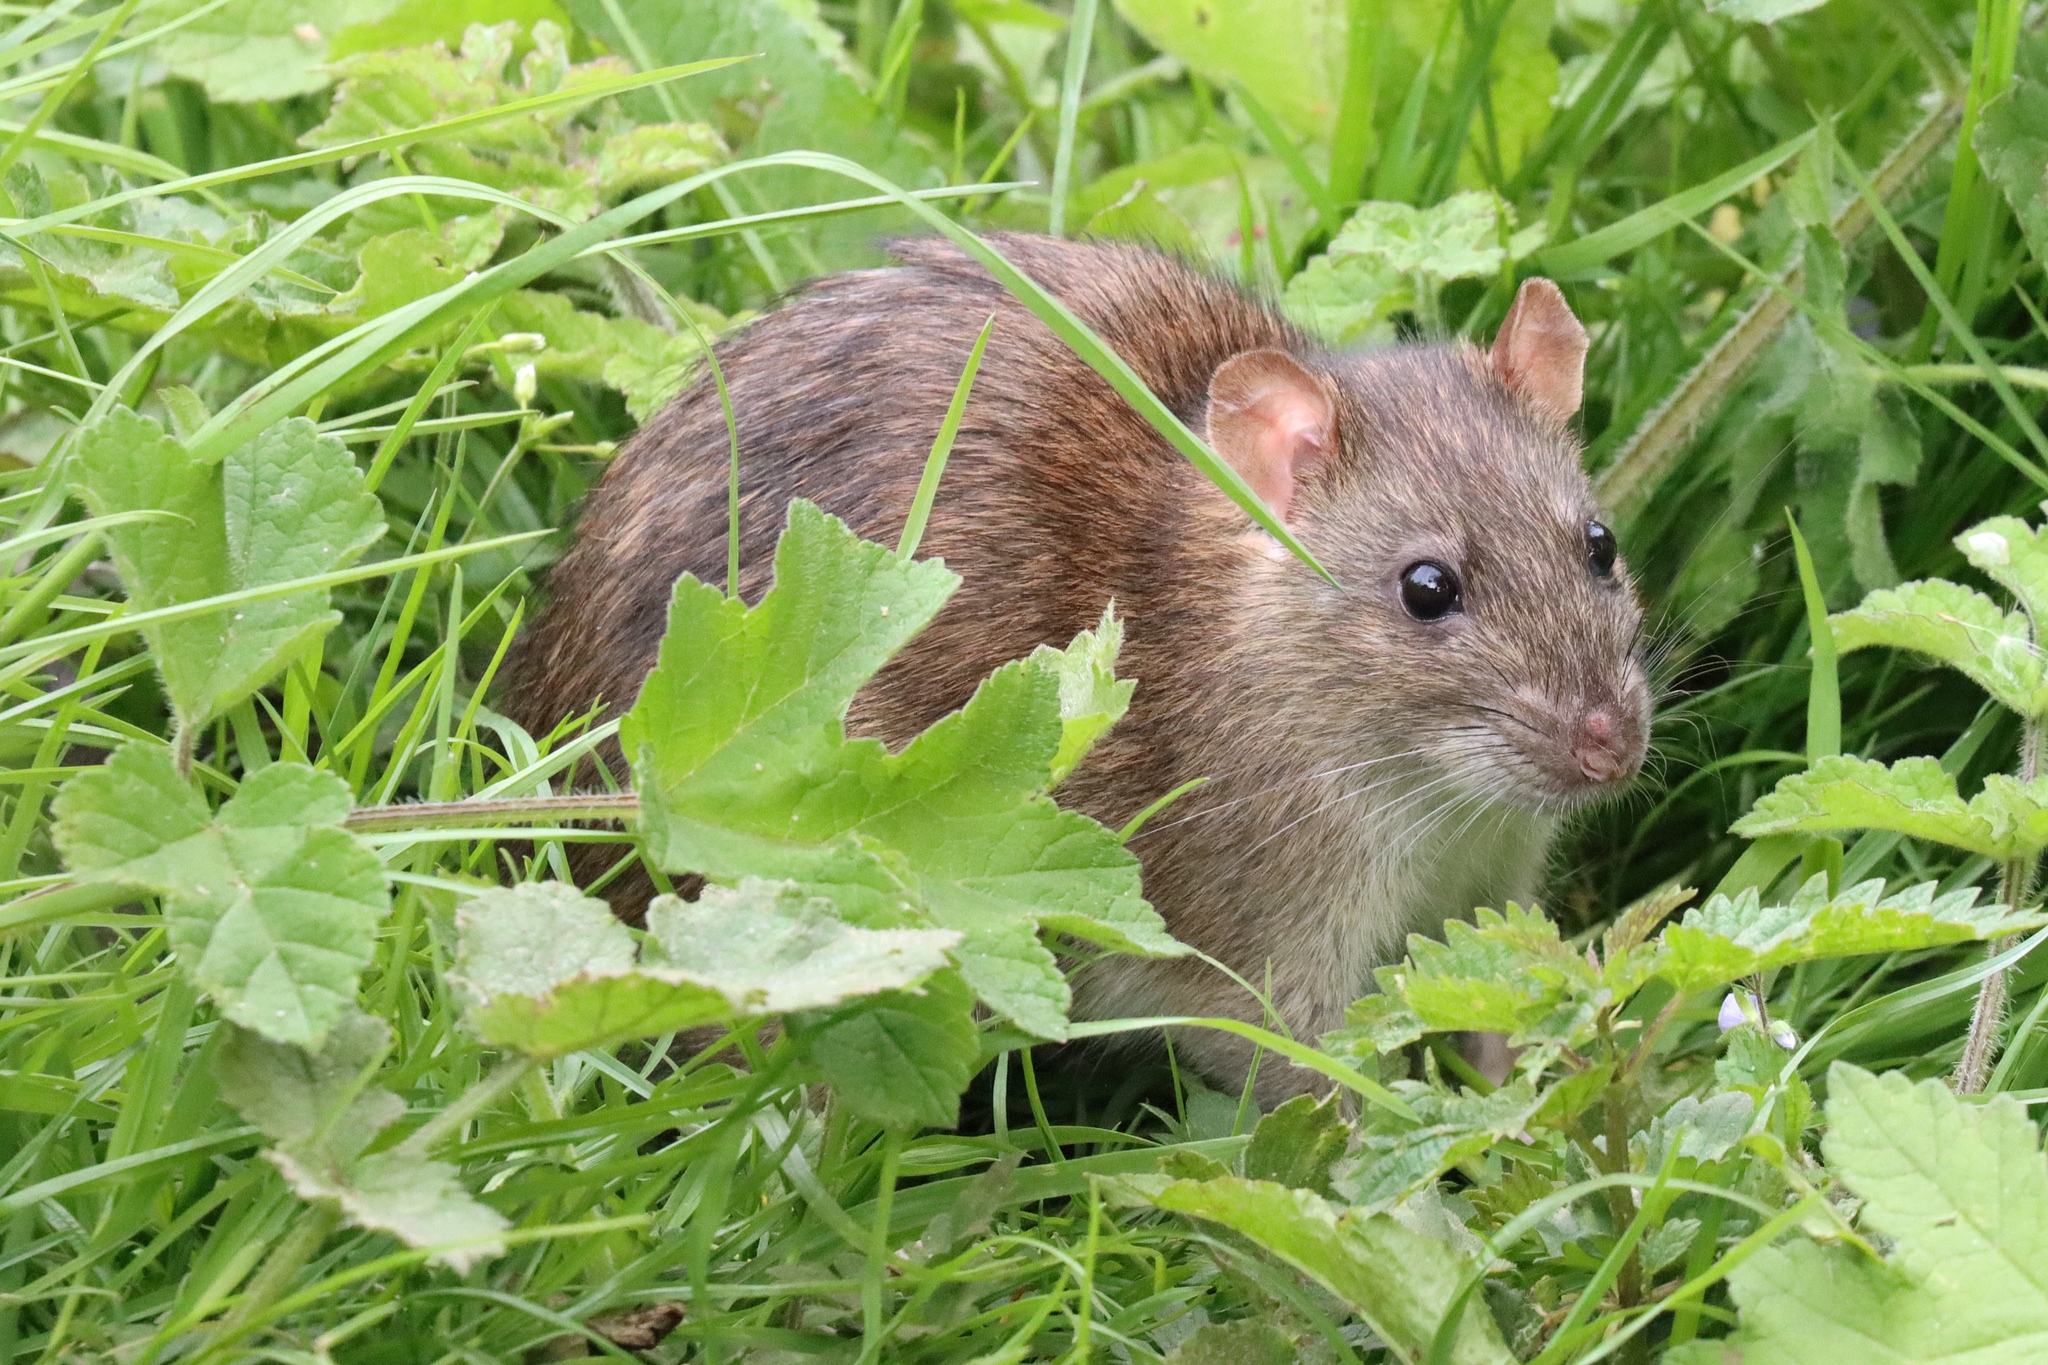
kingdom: Animalia
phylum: Chordata
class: Mammalia
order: Rodentia
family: Muridae
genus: Rattus
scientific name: Rattus norvegicus
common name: Brown rat
